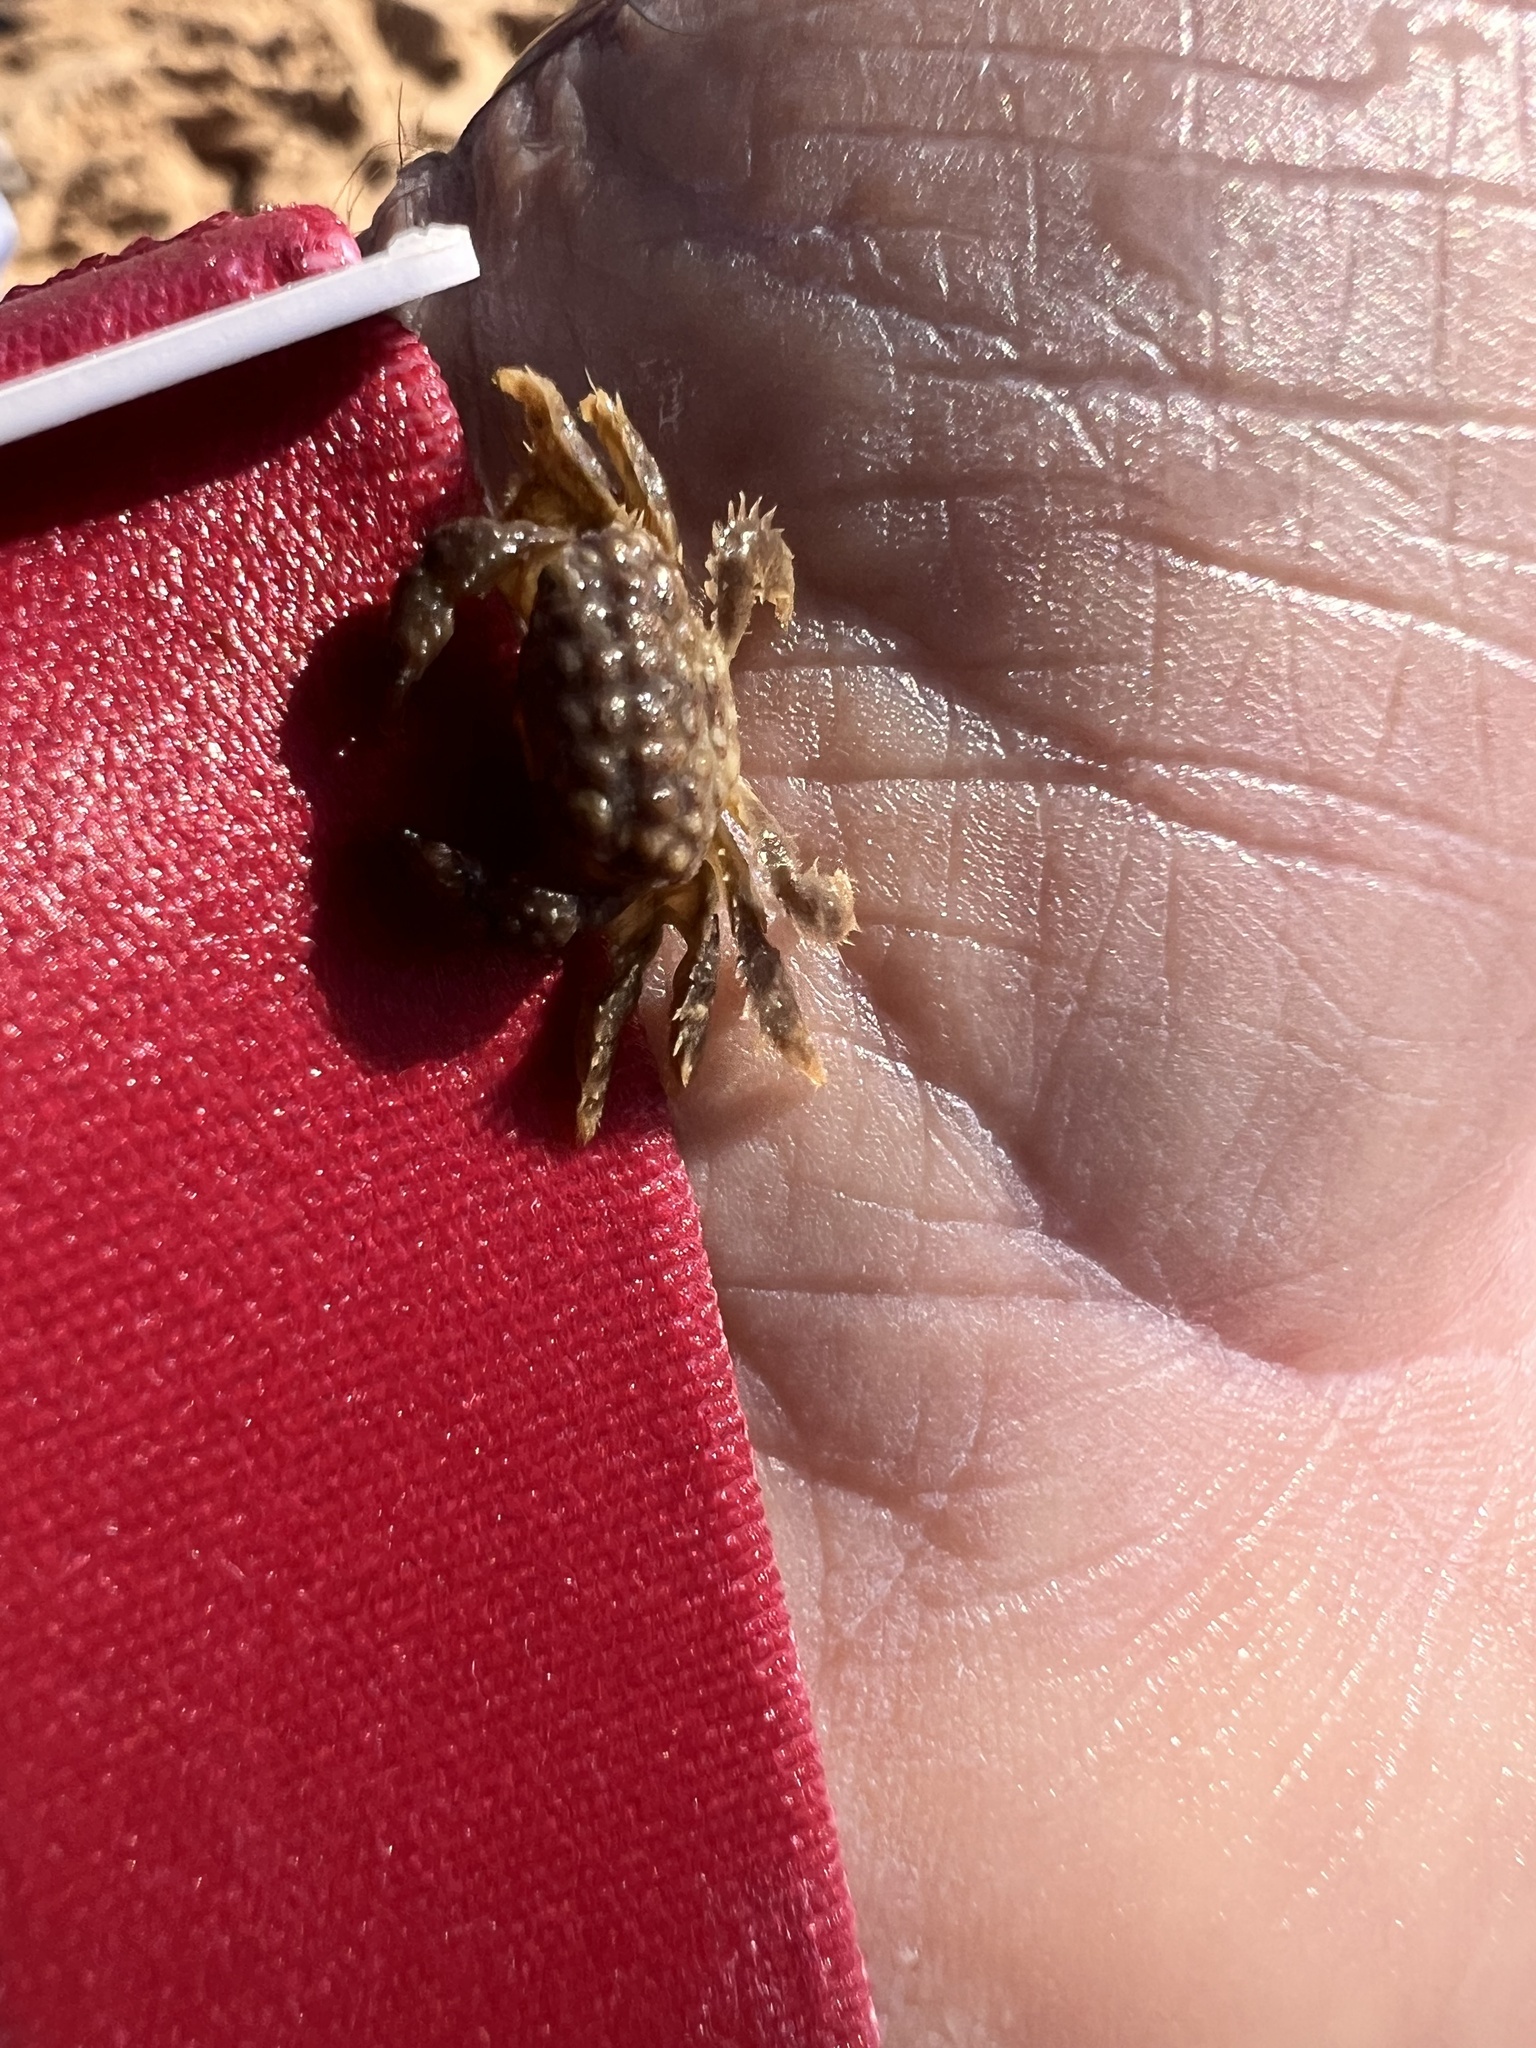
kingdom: Animalia
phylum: Arthropoda
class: Malacostraca
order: Decapoda
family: Xanthidae
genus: Pilodius
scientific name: Pilodius areolatus
